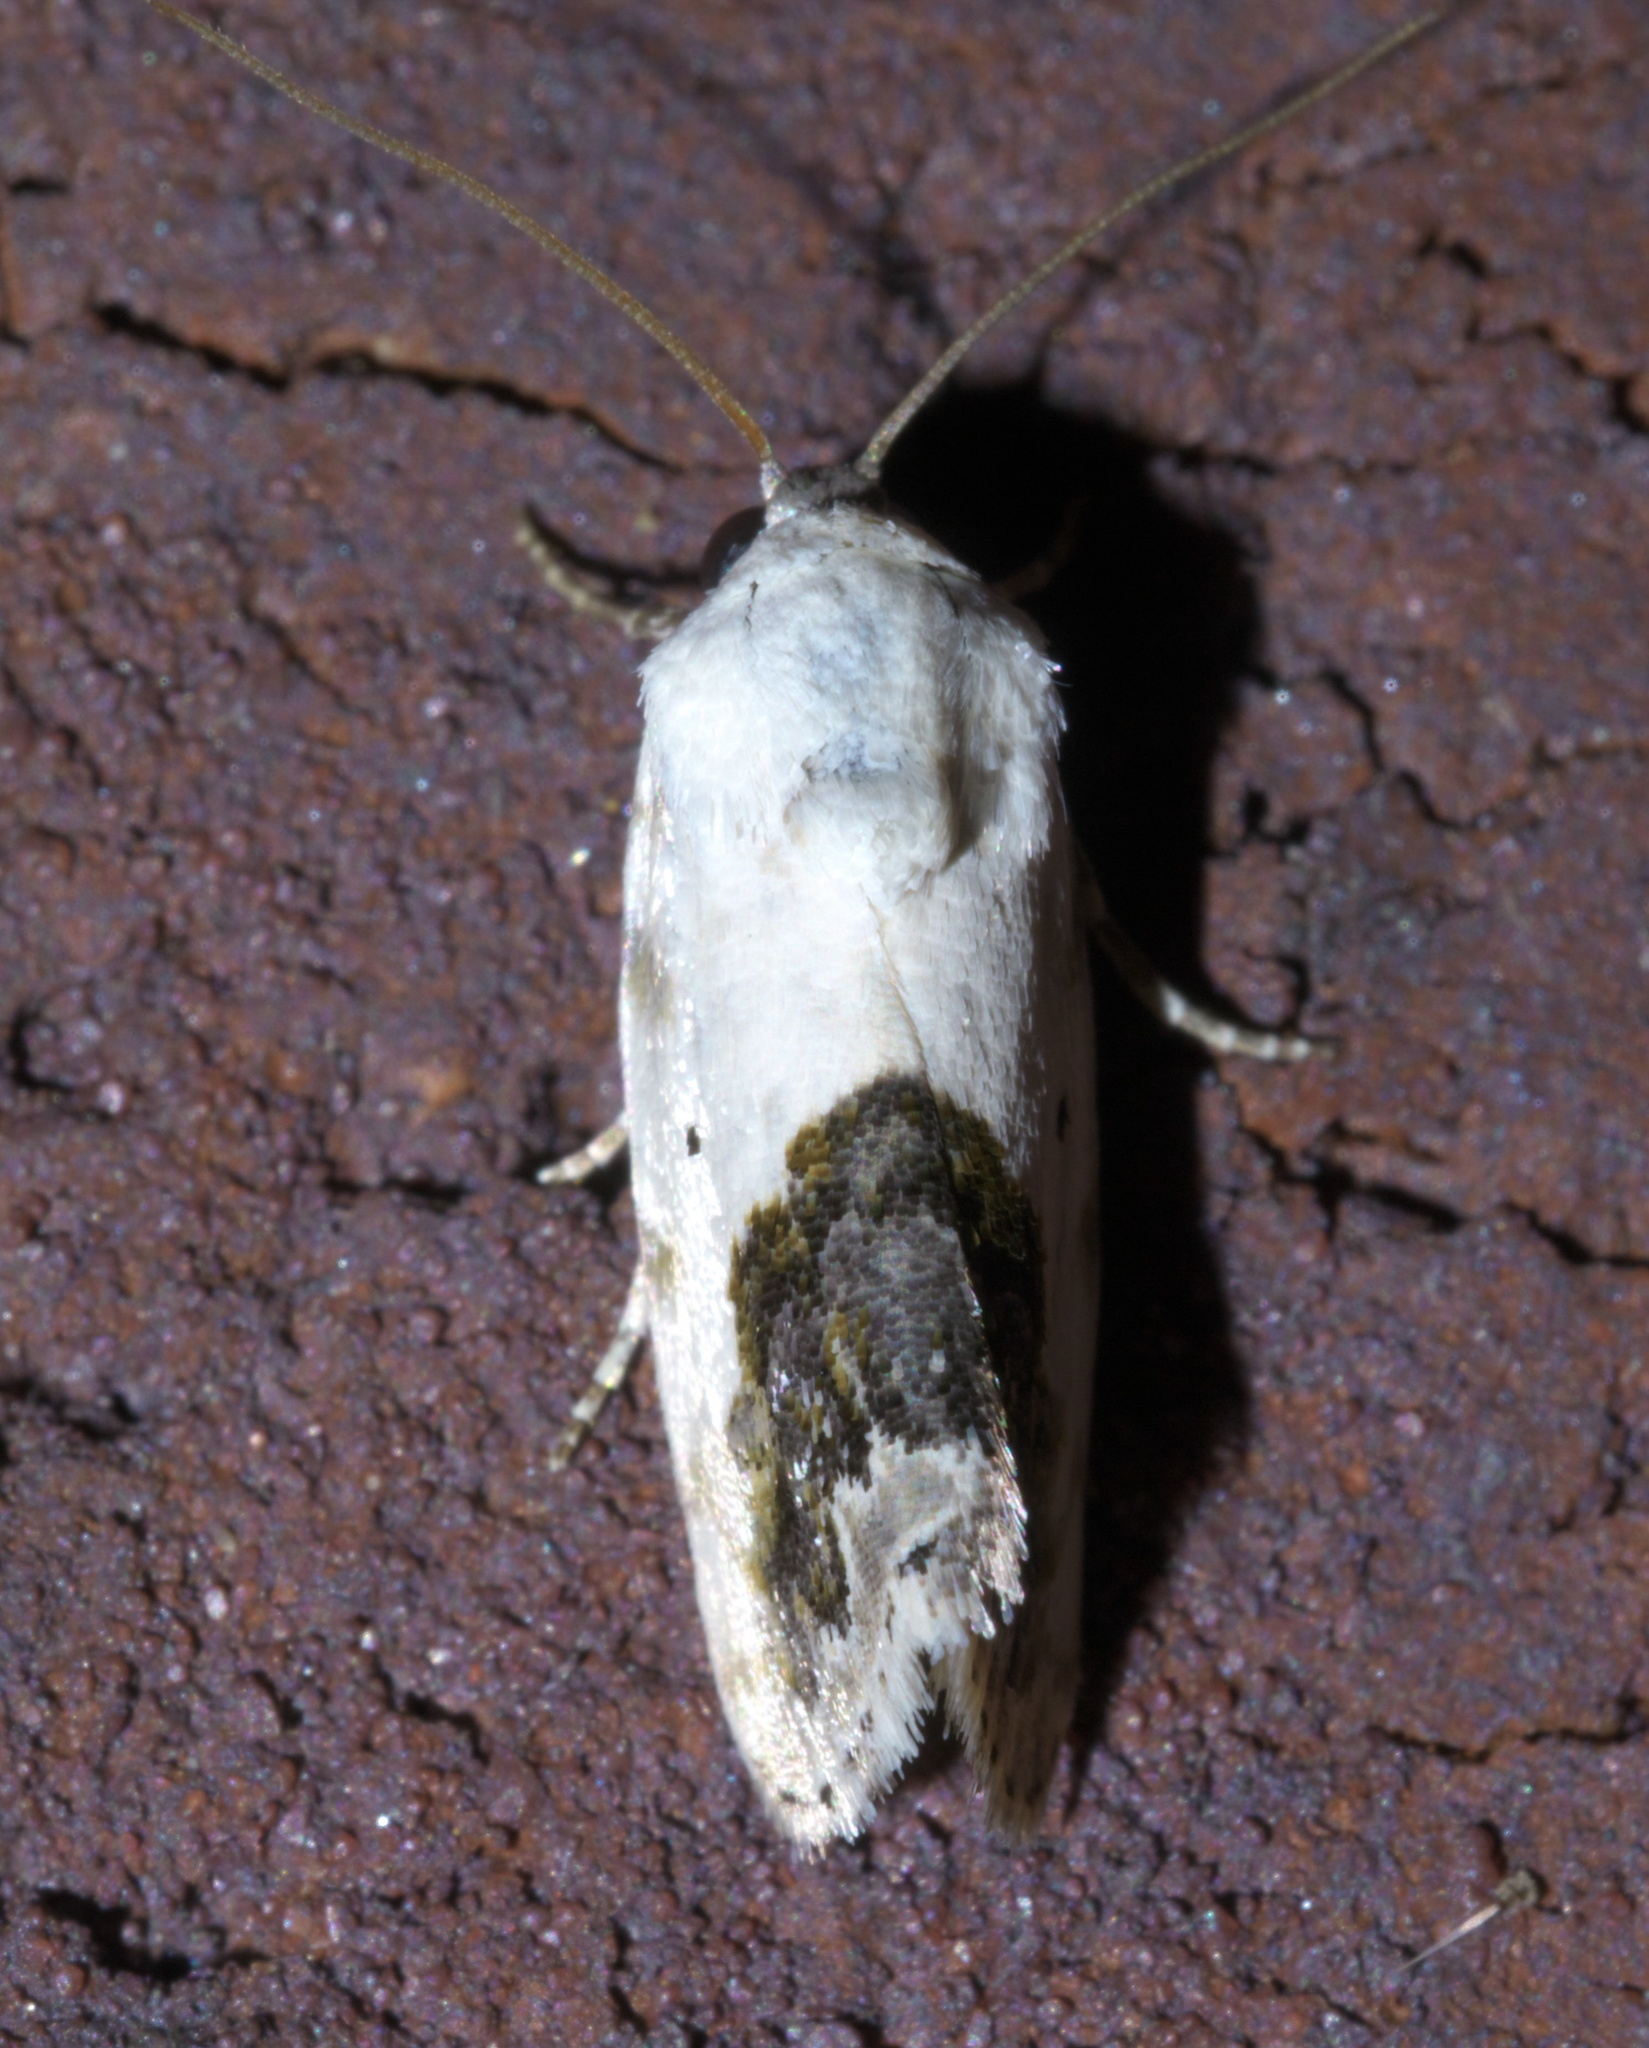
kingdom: Animalia
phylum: Arthropoda
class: Insecta
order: Lepidoptera
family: Noctuidae
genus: Acontia
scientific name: Acontia erastrioides
